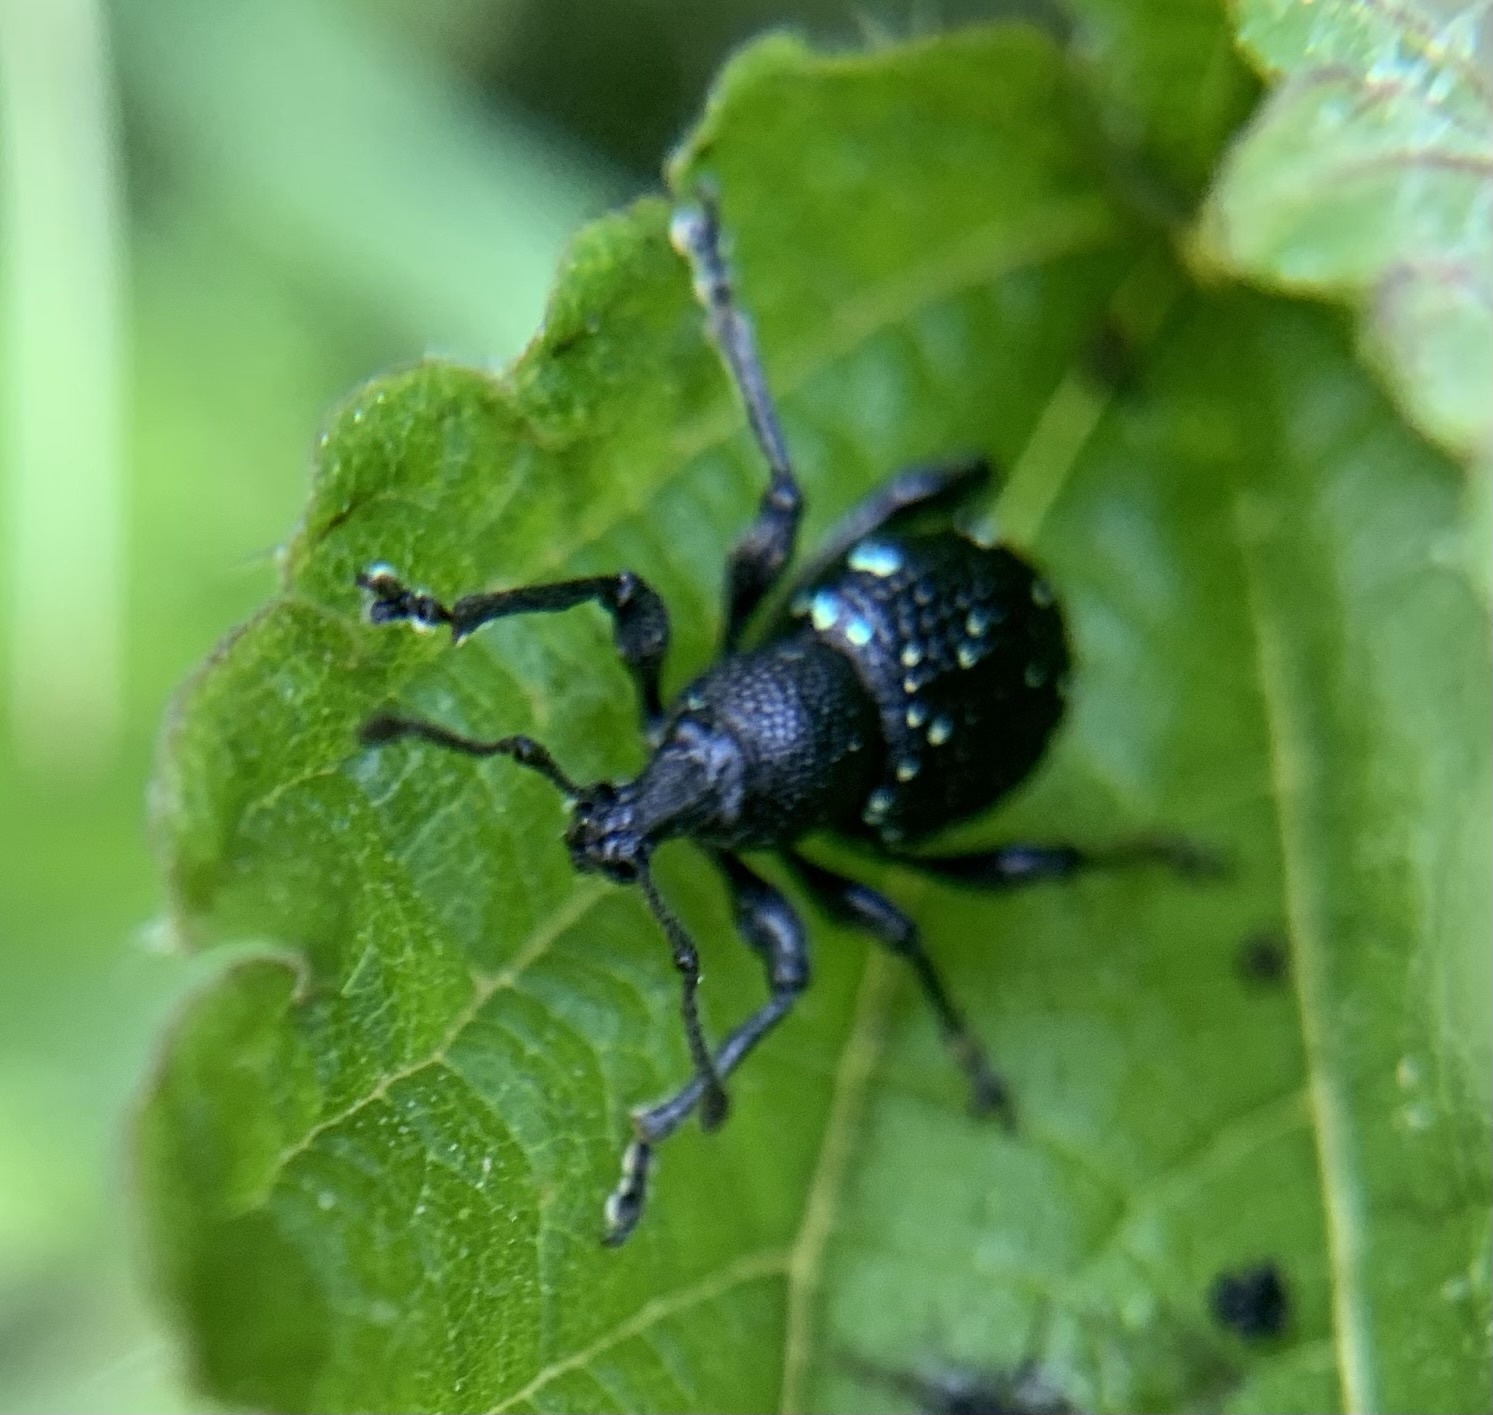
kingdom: Animalia
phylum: Arthropoda
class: Insecta
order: Coleoptera
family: Curculionidae
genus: Otiorhynchus
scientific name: Otiorhynchus gemmatus
